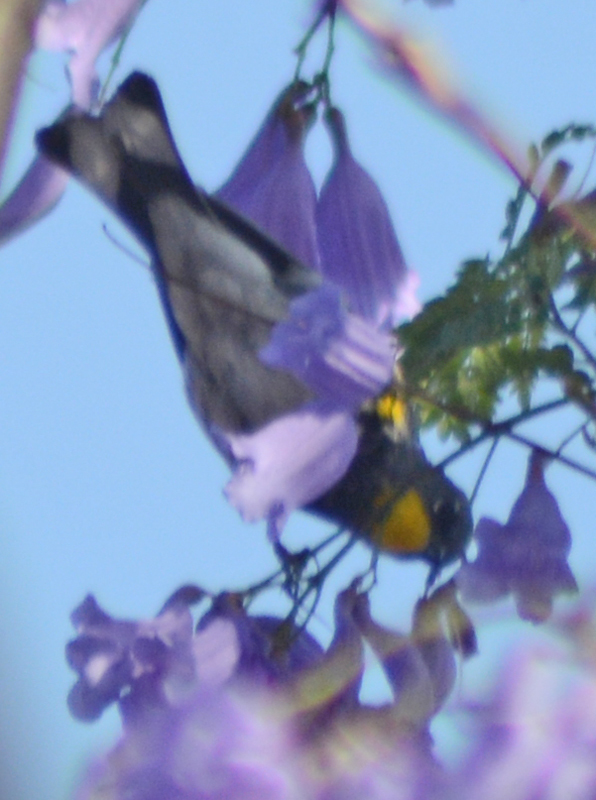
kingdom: Animalia
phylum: Chordata
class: Aves
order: Passeriformes
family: Parulidae
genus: Setophaga
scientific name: Setophaga auduboni
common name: Audubon's warbler
